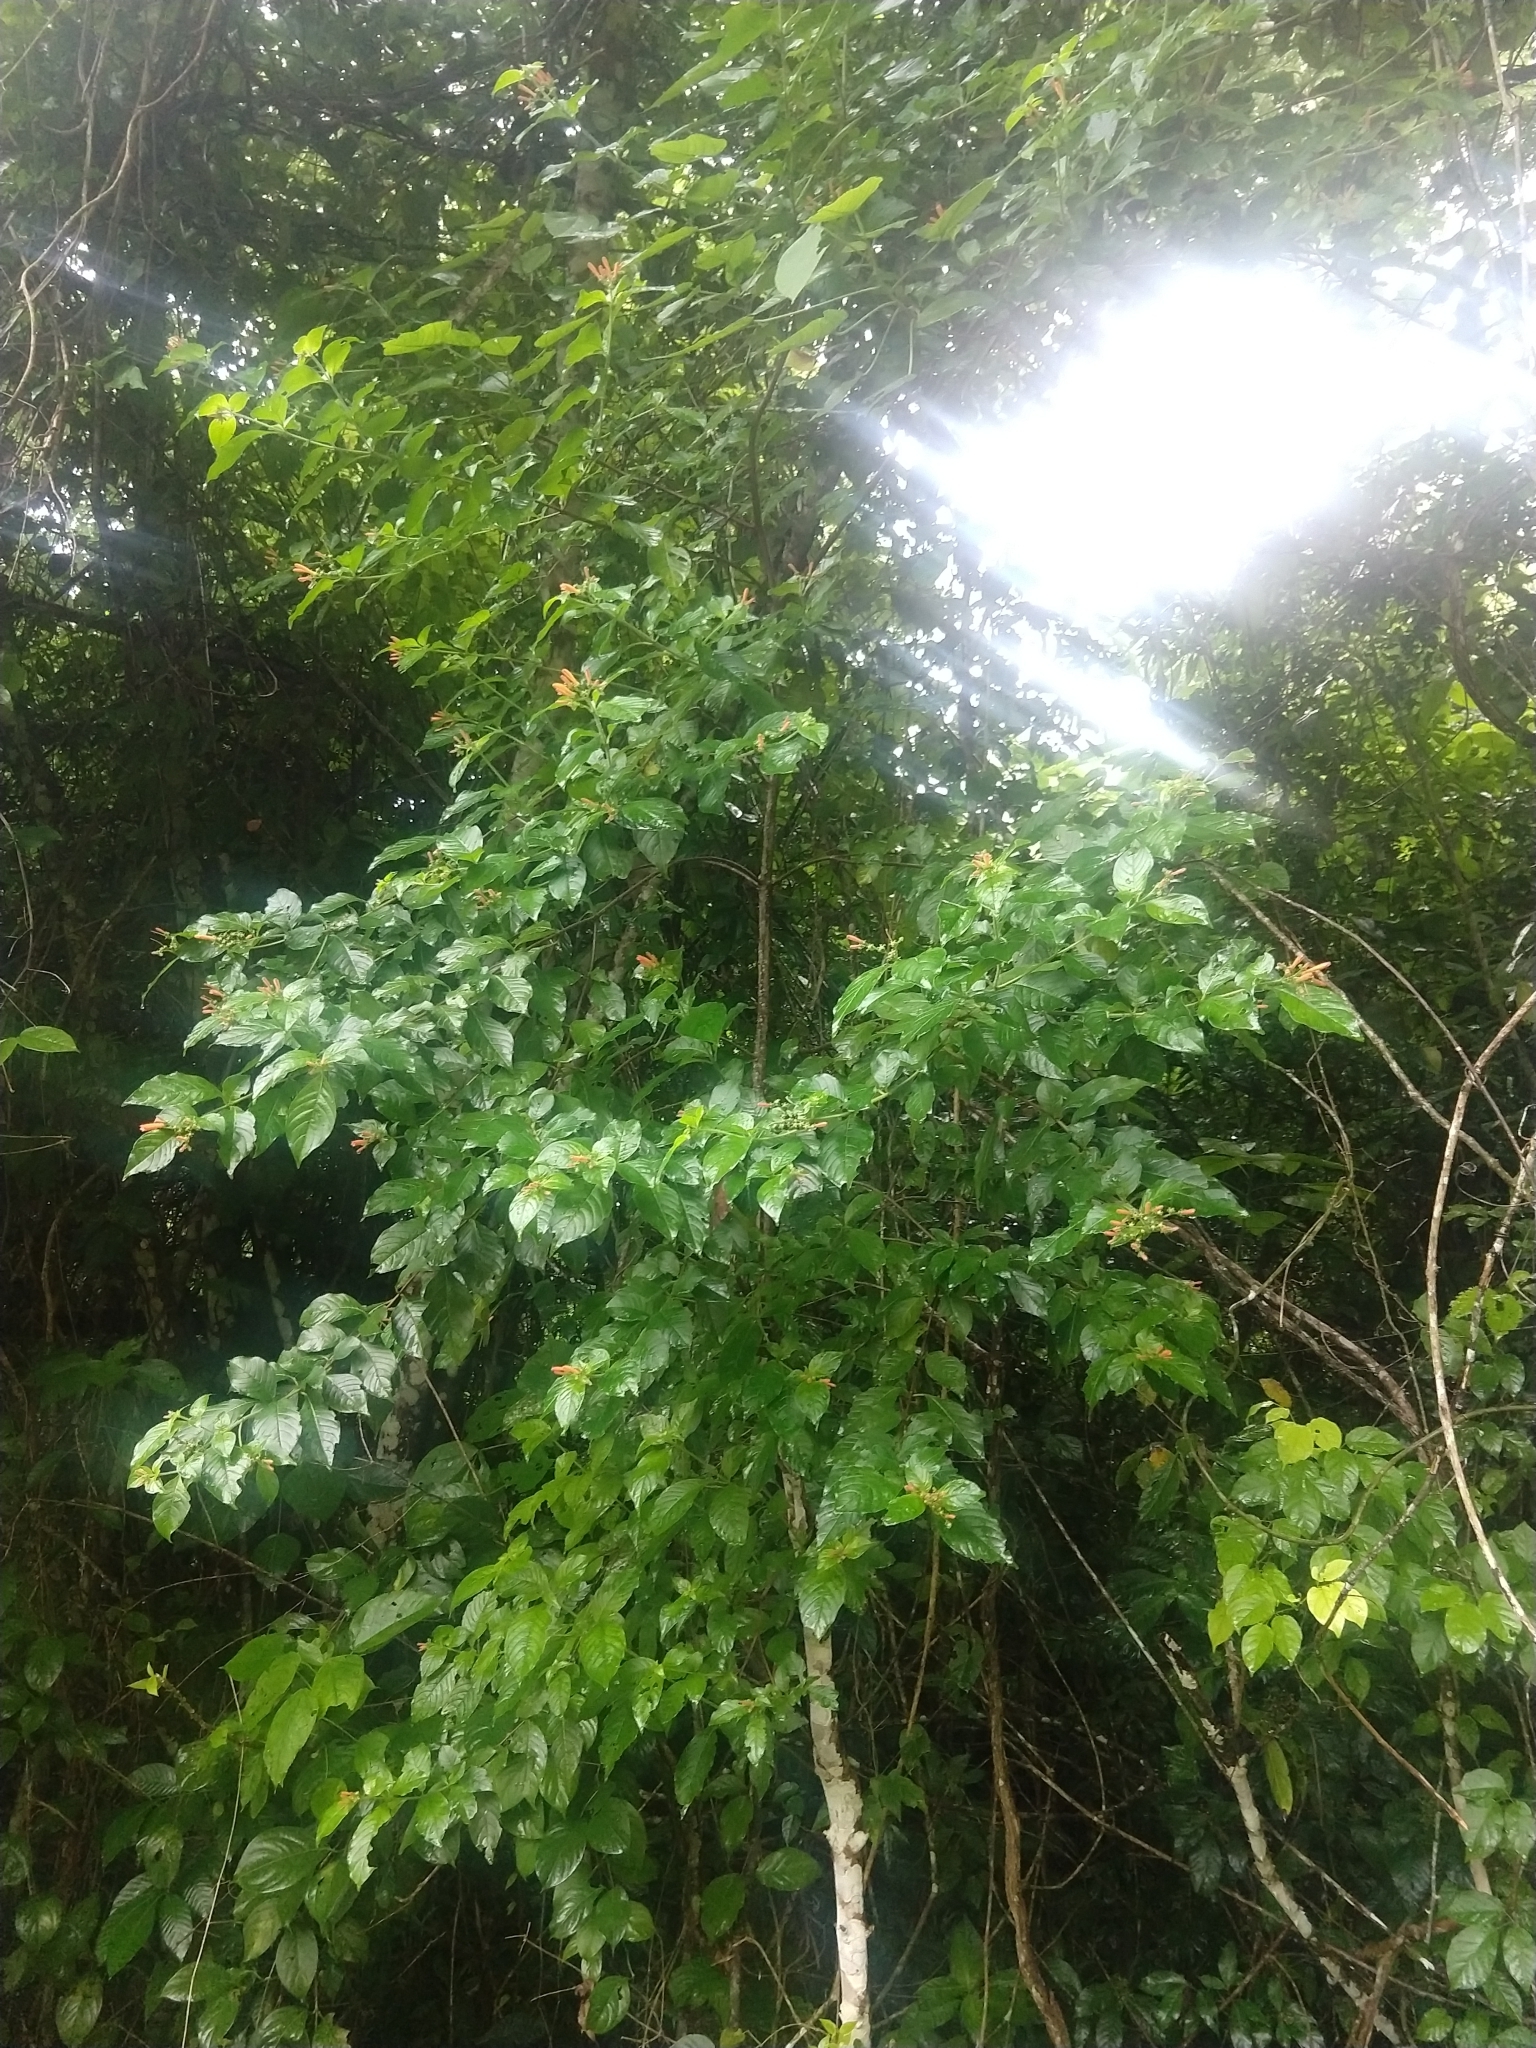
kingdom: Plantae
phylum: Tracheophyta
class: Magnoliopsida
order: Gentianales
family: Rubiaceae
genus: Hamelia
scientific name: Hamelia rovirosae
